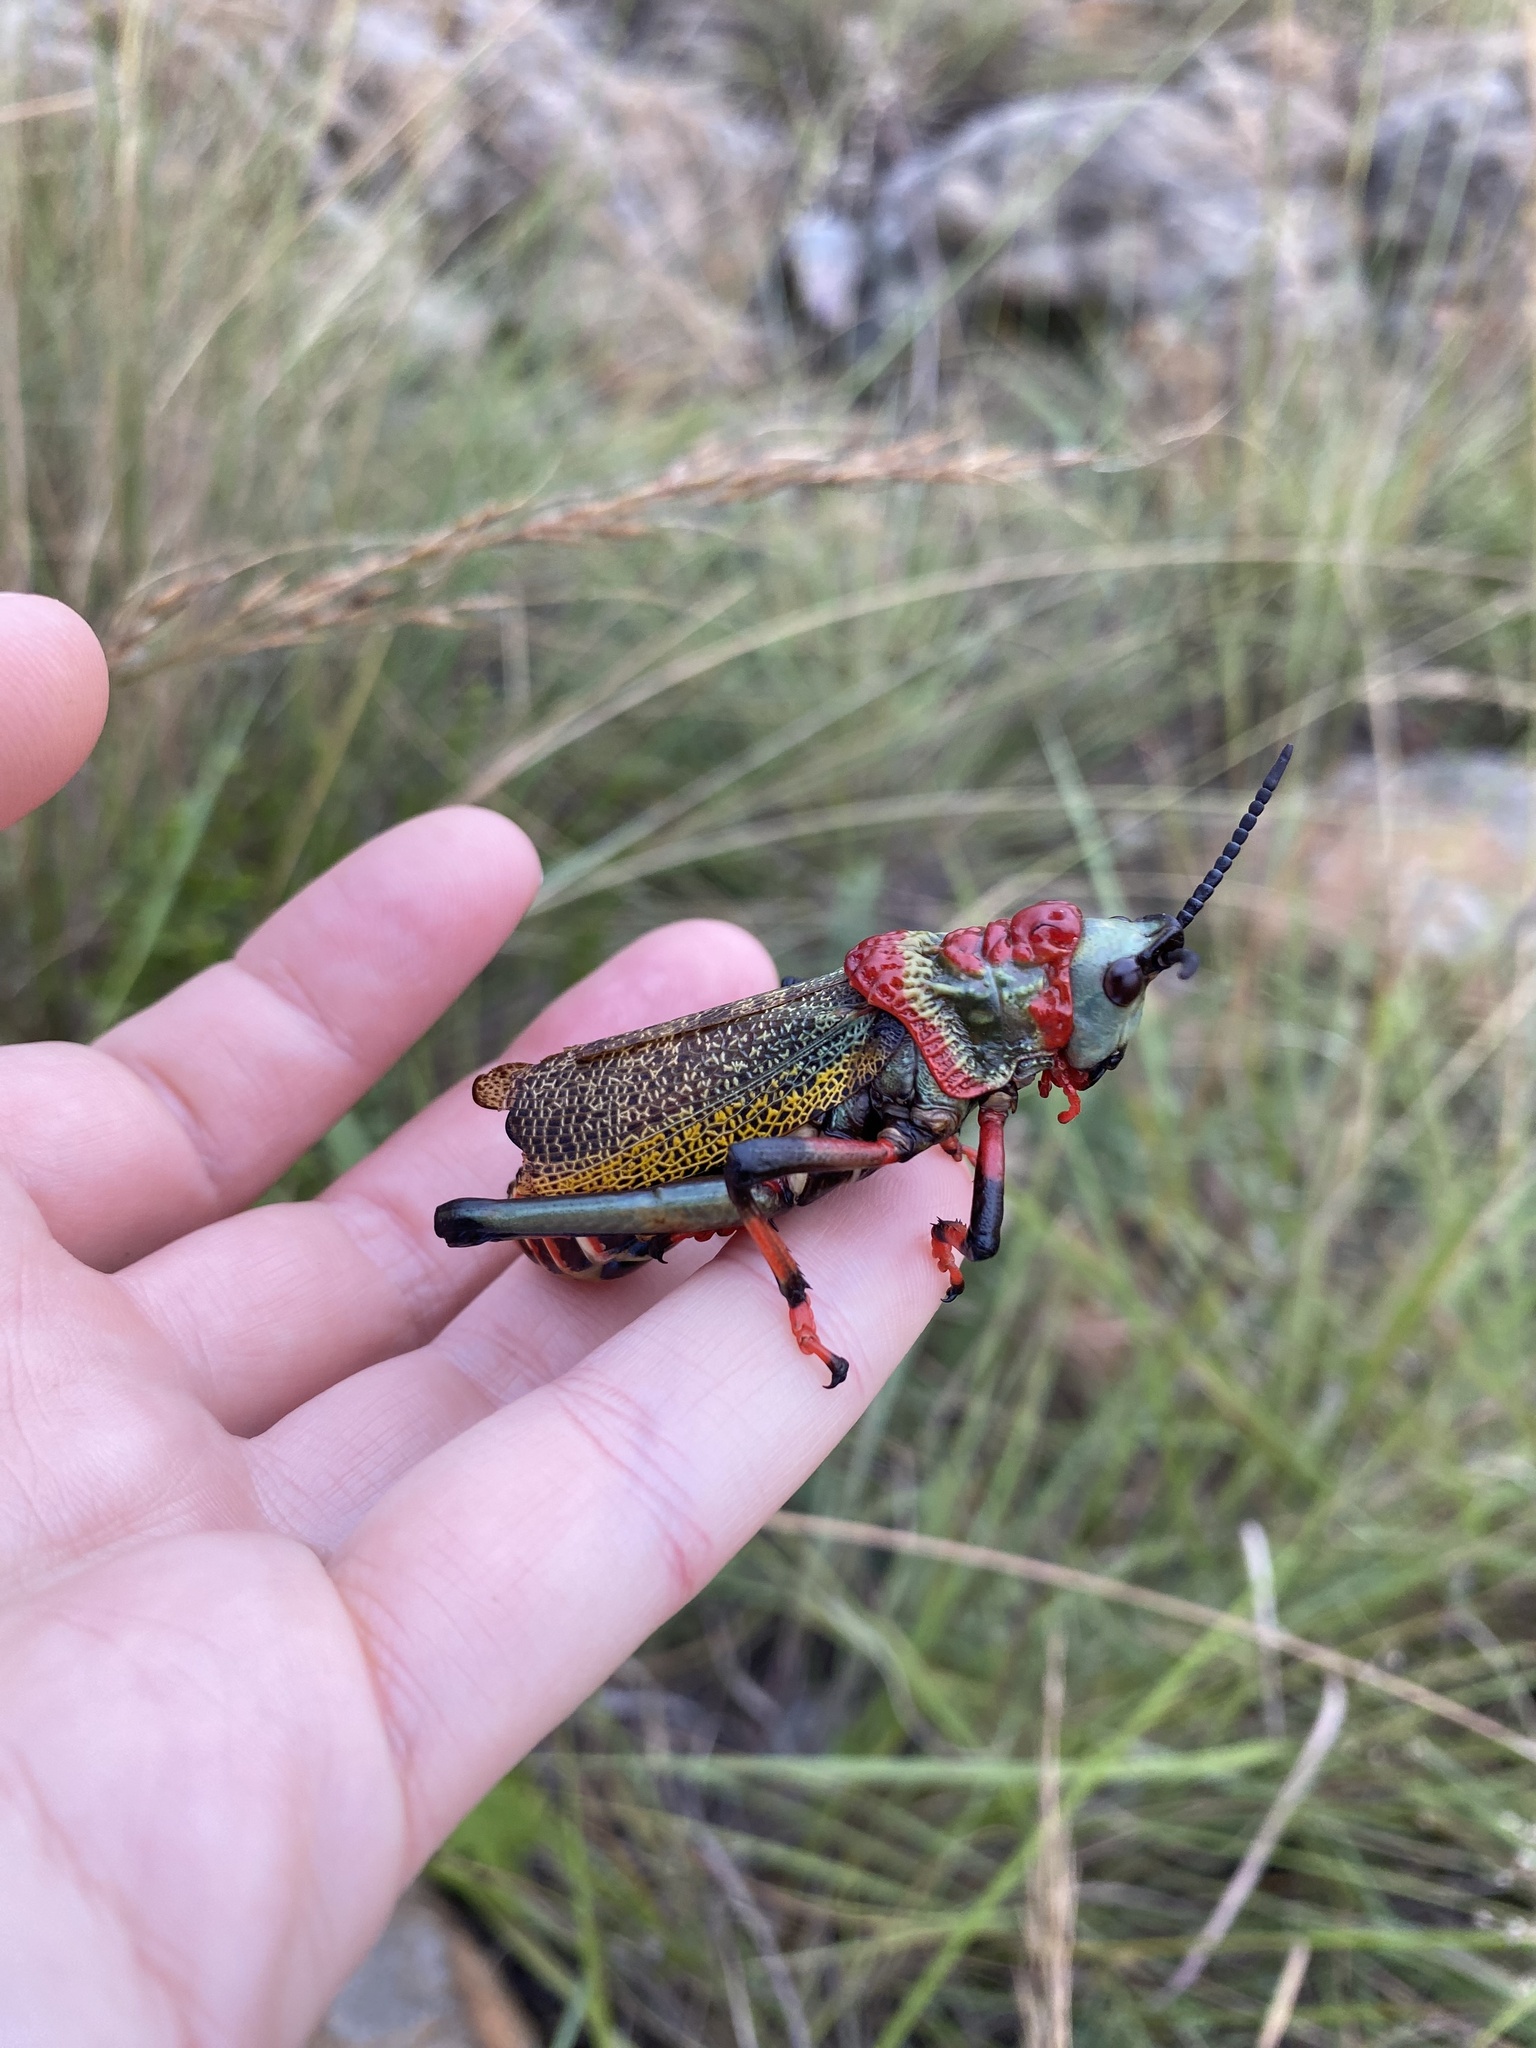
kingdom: Animalia
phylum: Arthropoda
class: Insecta
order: Orthoptera
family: Pyrgomorphidae
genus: Dictyophorus
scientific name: Dictyophorus spumans
